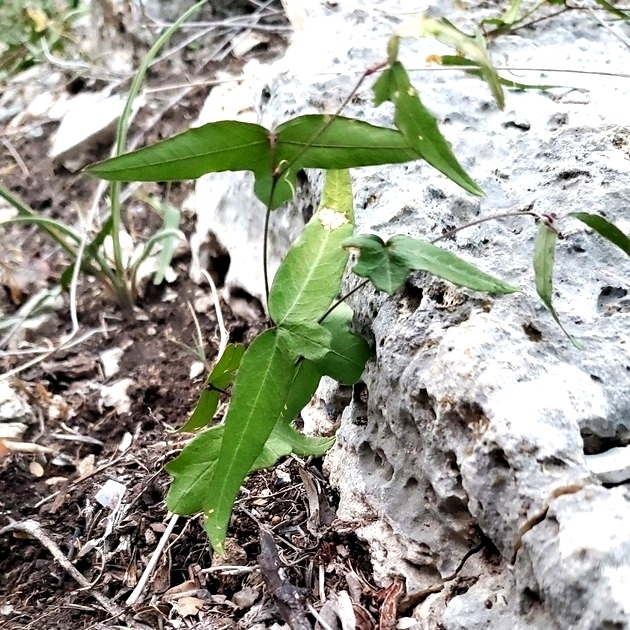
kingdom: Plantae
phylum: Tracheophyta
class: Magnoliopsida
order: Malpighiales
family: Passifloraceae
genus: Passiflora
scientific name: Passiflora tenuiloba
